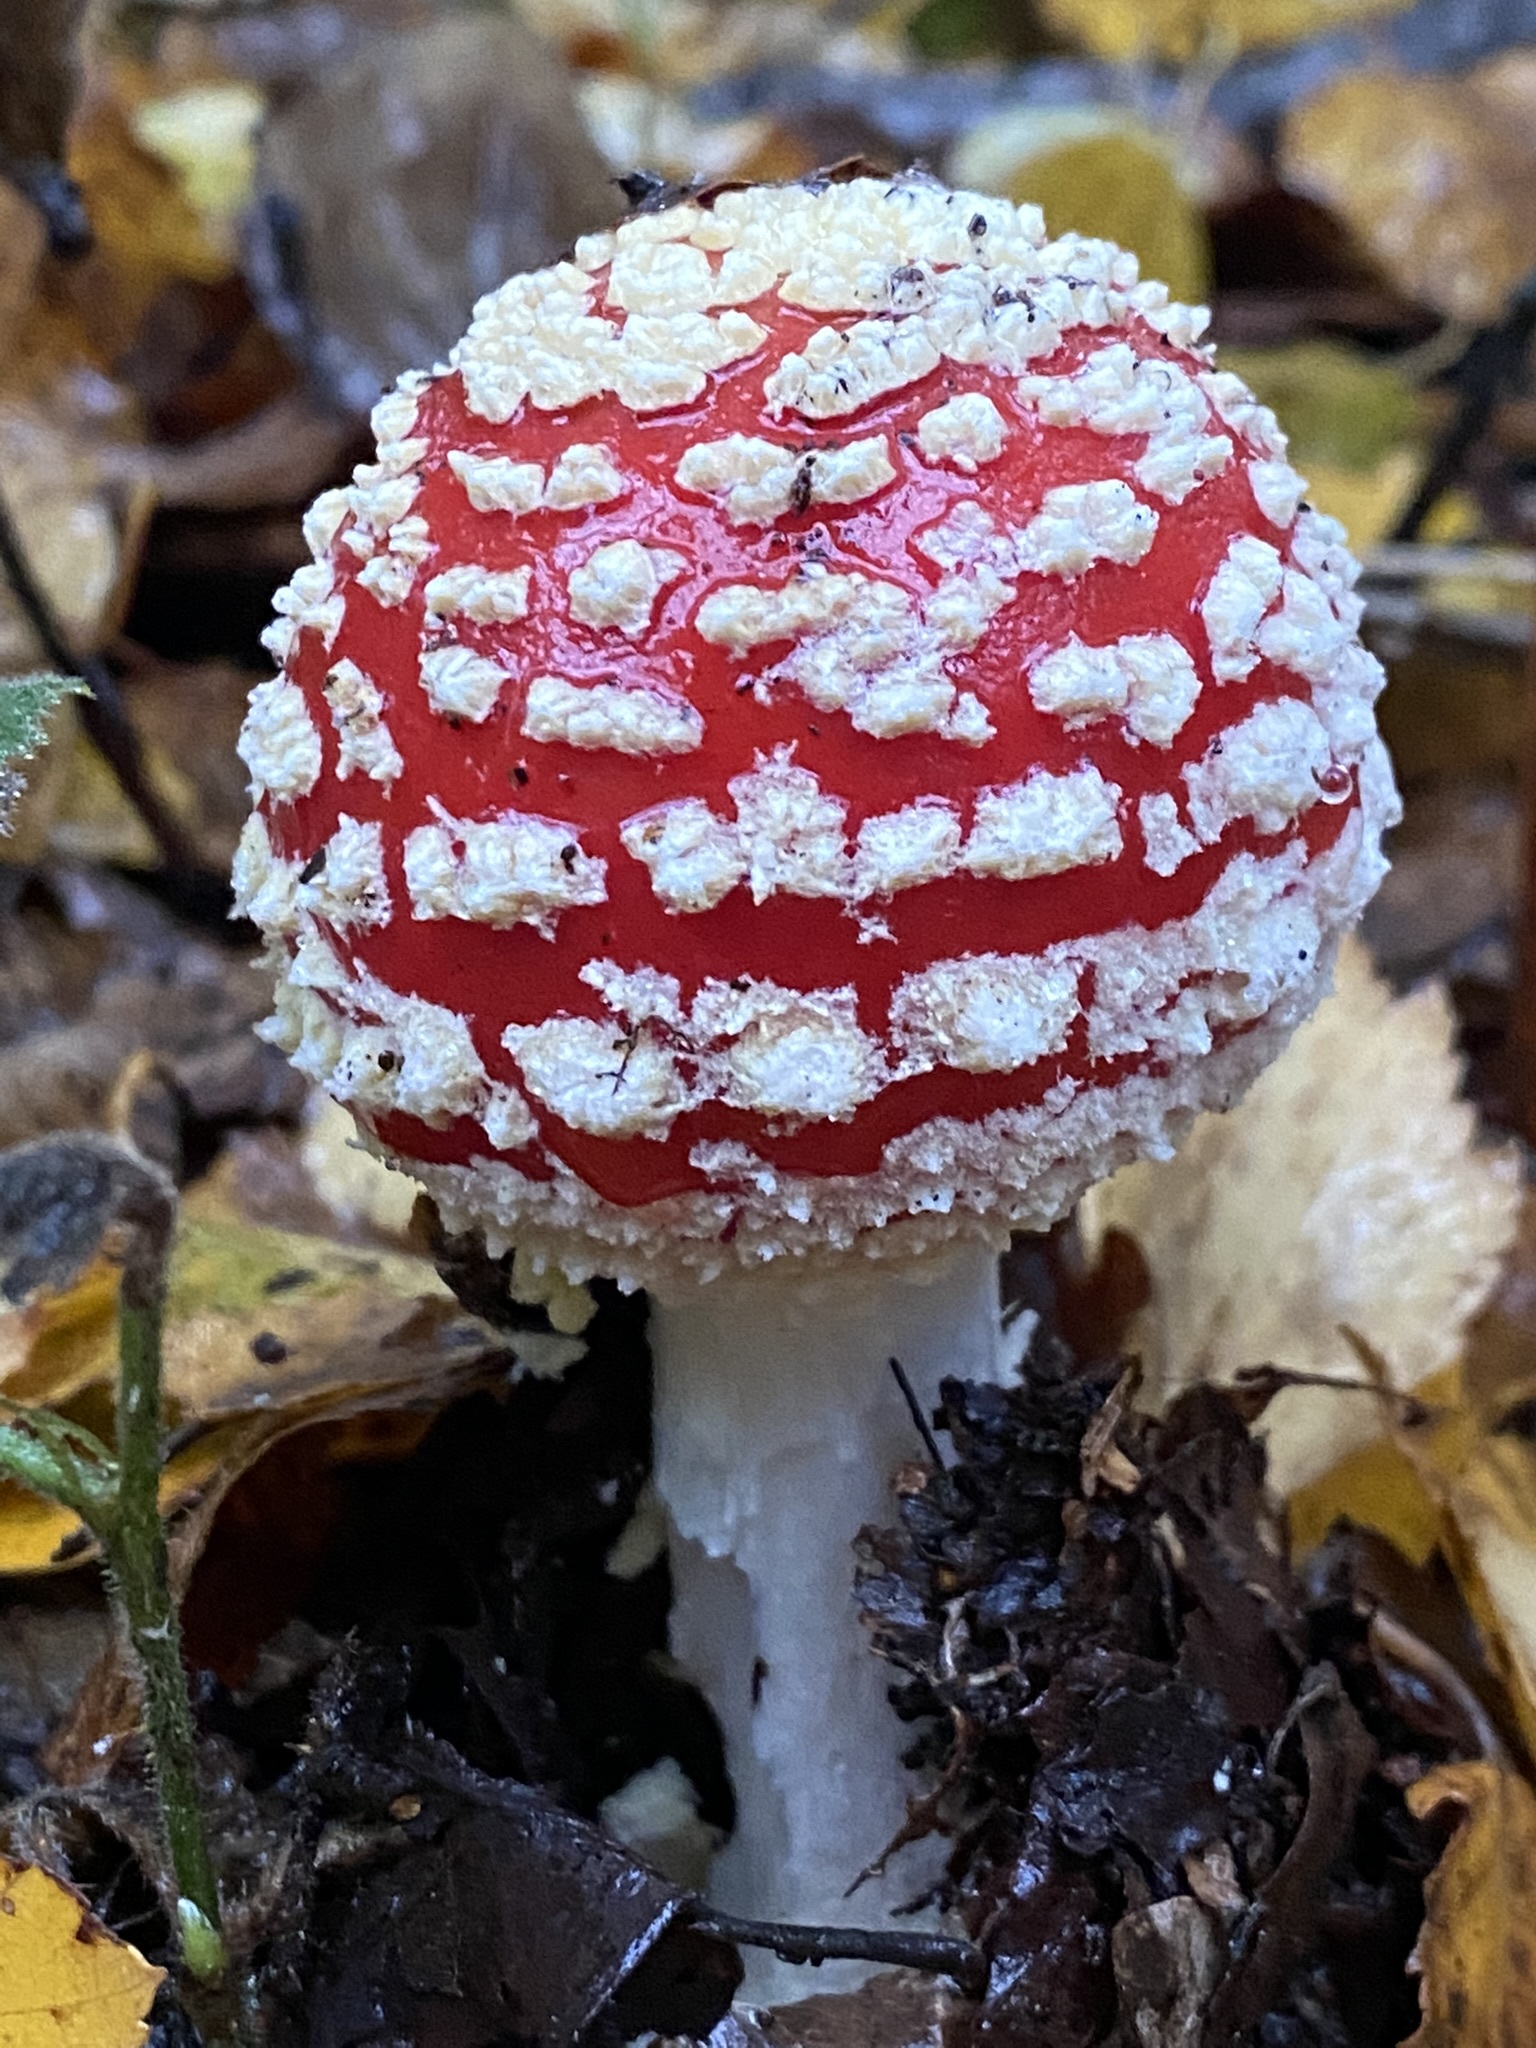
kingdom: Fungi
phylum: Basidiomycota
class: Agaricomycetes
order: Agaricales
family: Amanitaceae
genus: Amanita
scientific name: Amanita muscaria
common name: Fly agaric
